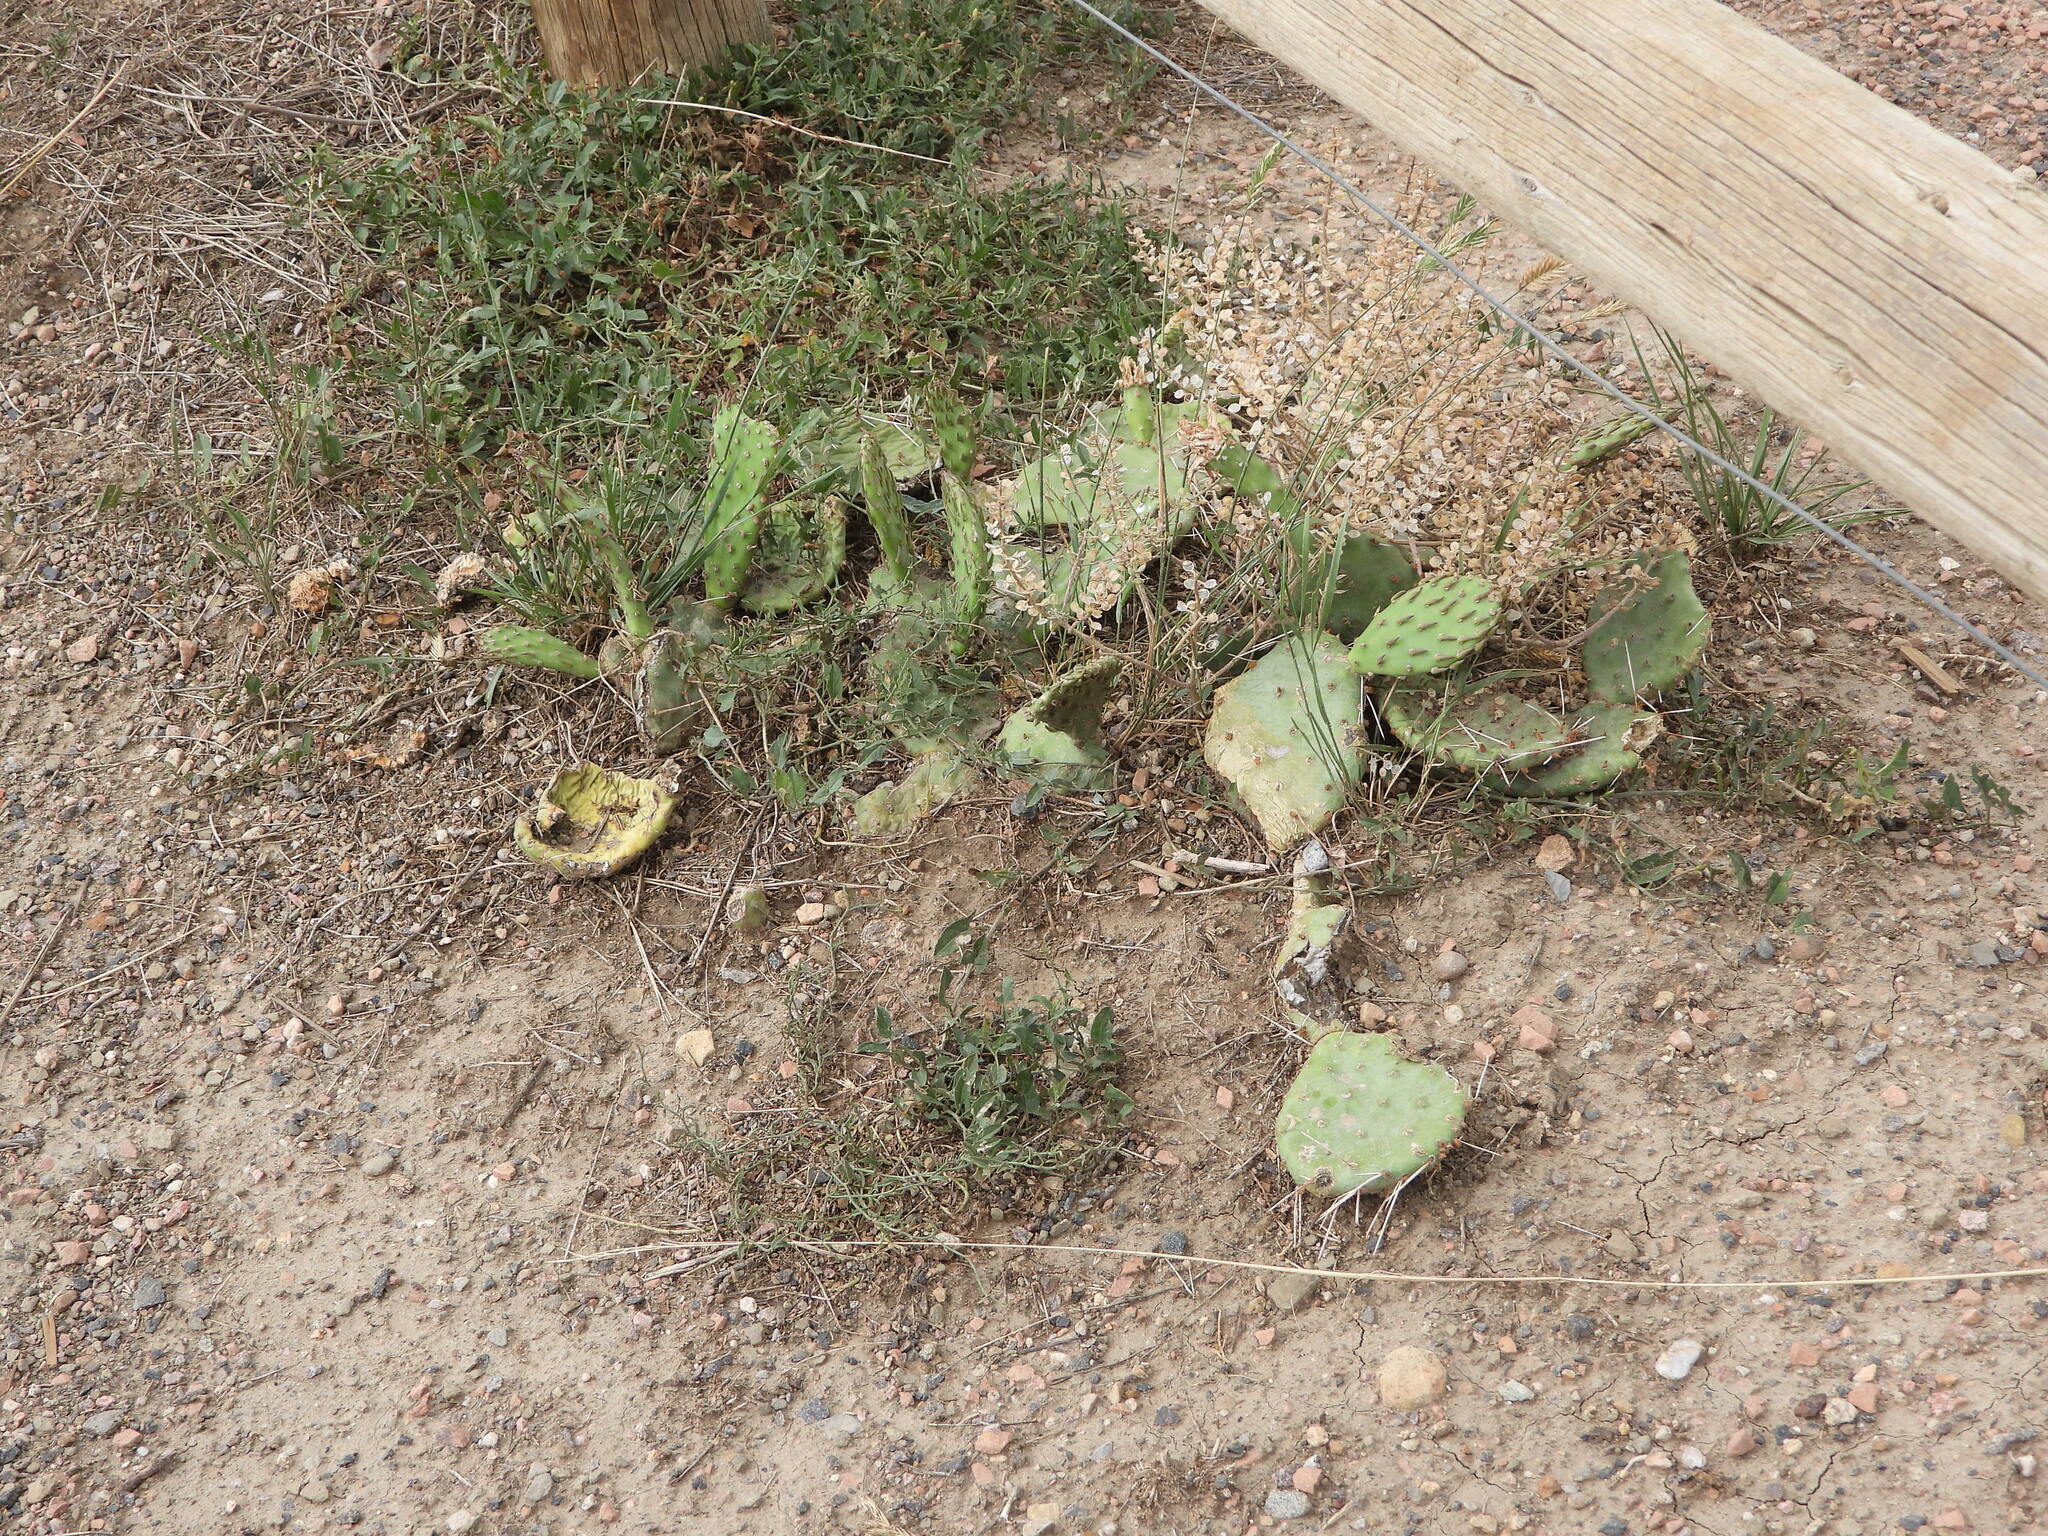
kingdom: Plantae
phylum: Tracheophyta
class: Magnoliopsida
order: Caryophyllales
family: Cactaceae
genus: Opuntia
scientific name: Opuntia macrorhiza
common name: Grassland pricklypear
